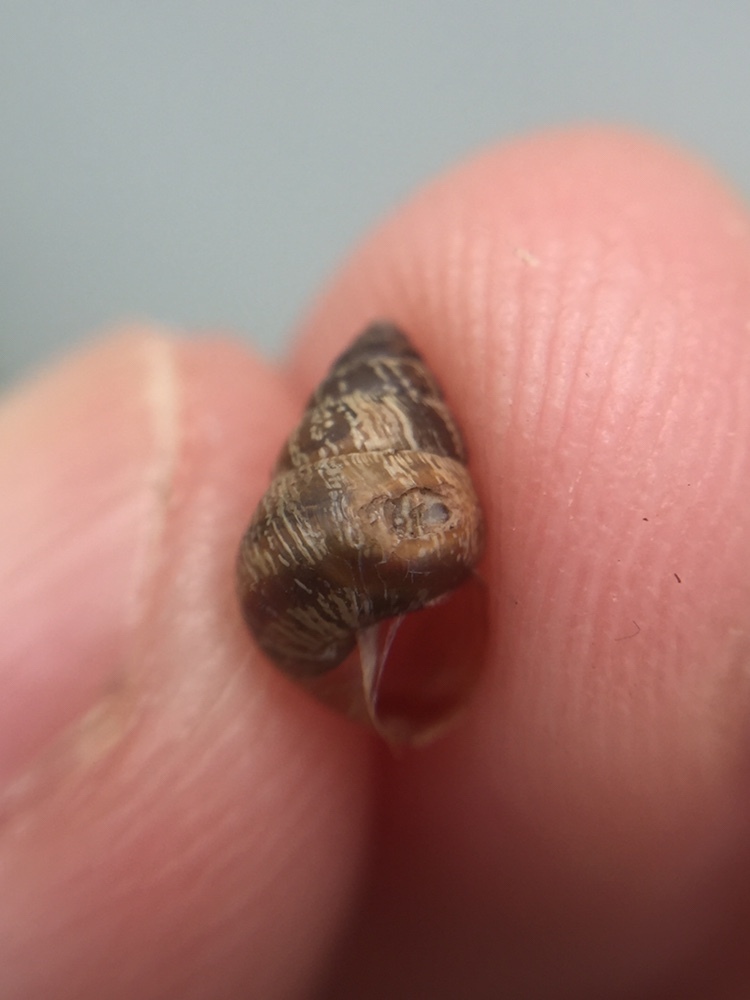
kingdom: Animalia
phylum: Mollusca
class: Gastropoda
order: Stylommatophora
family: Geomitridae
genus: Cochlicella
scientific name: Cochlicella barbara
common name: Potbellied helicellid
